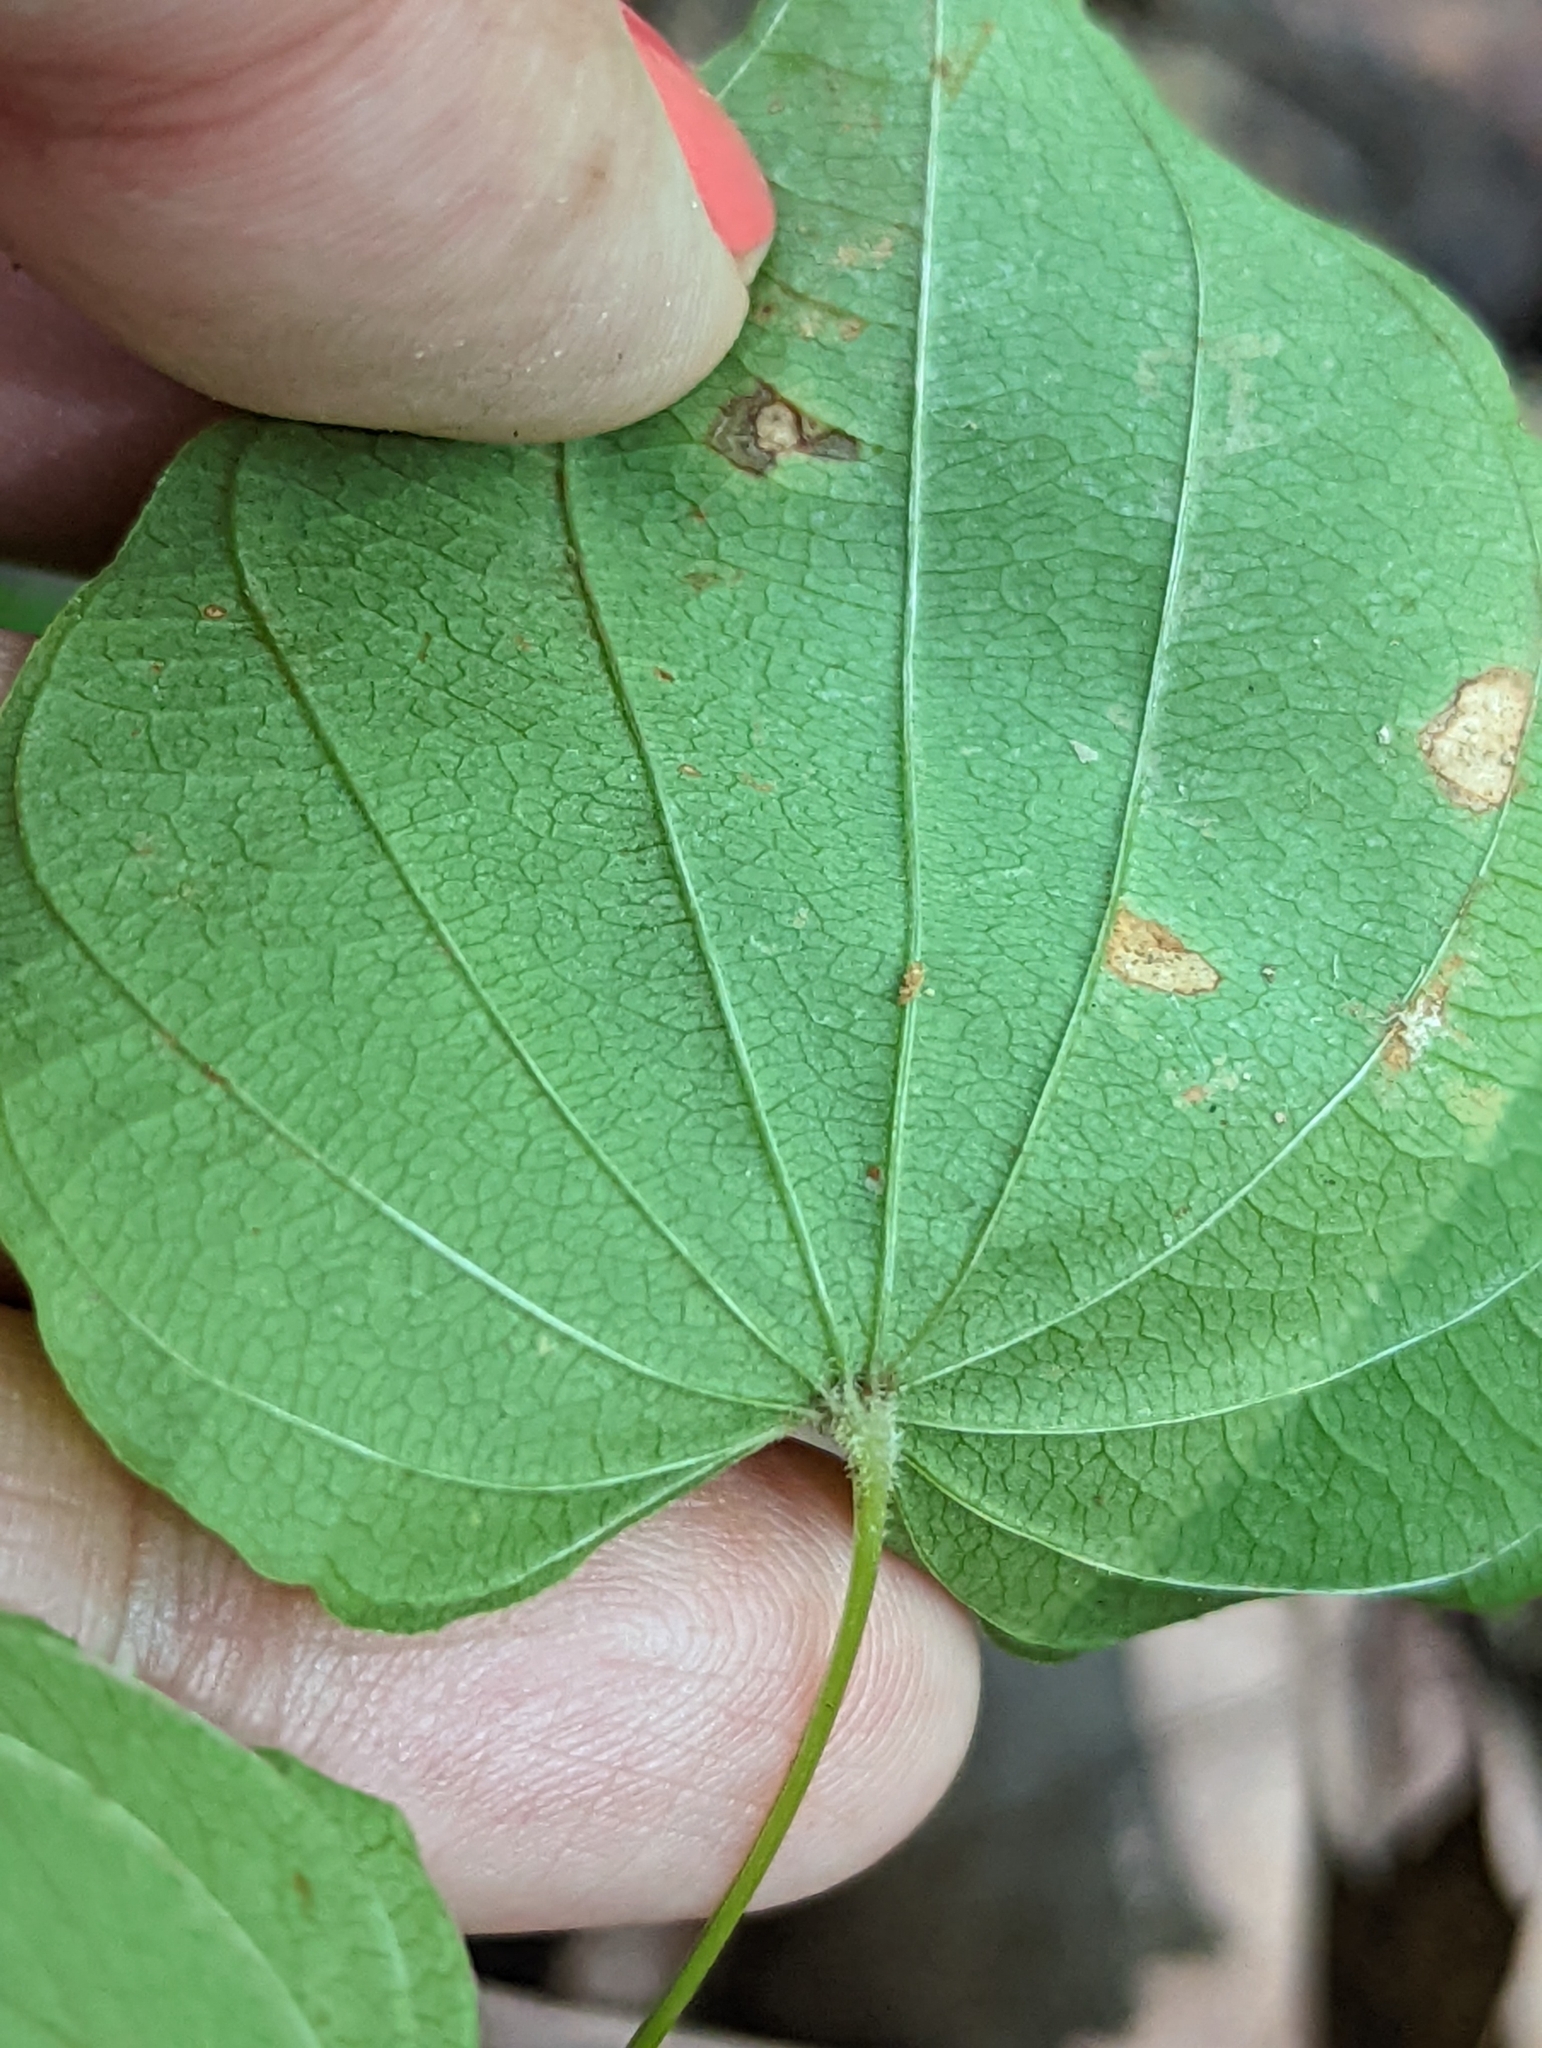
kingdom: Plantae
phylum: Tracheophyta
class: Liliopsida
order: Dioscoreales
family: Dioscoreaceae
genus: Dioscorea
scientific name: Dioscorea villosa
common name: Wild yam
